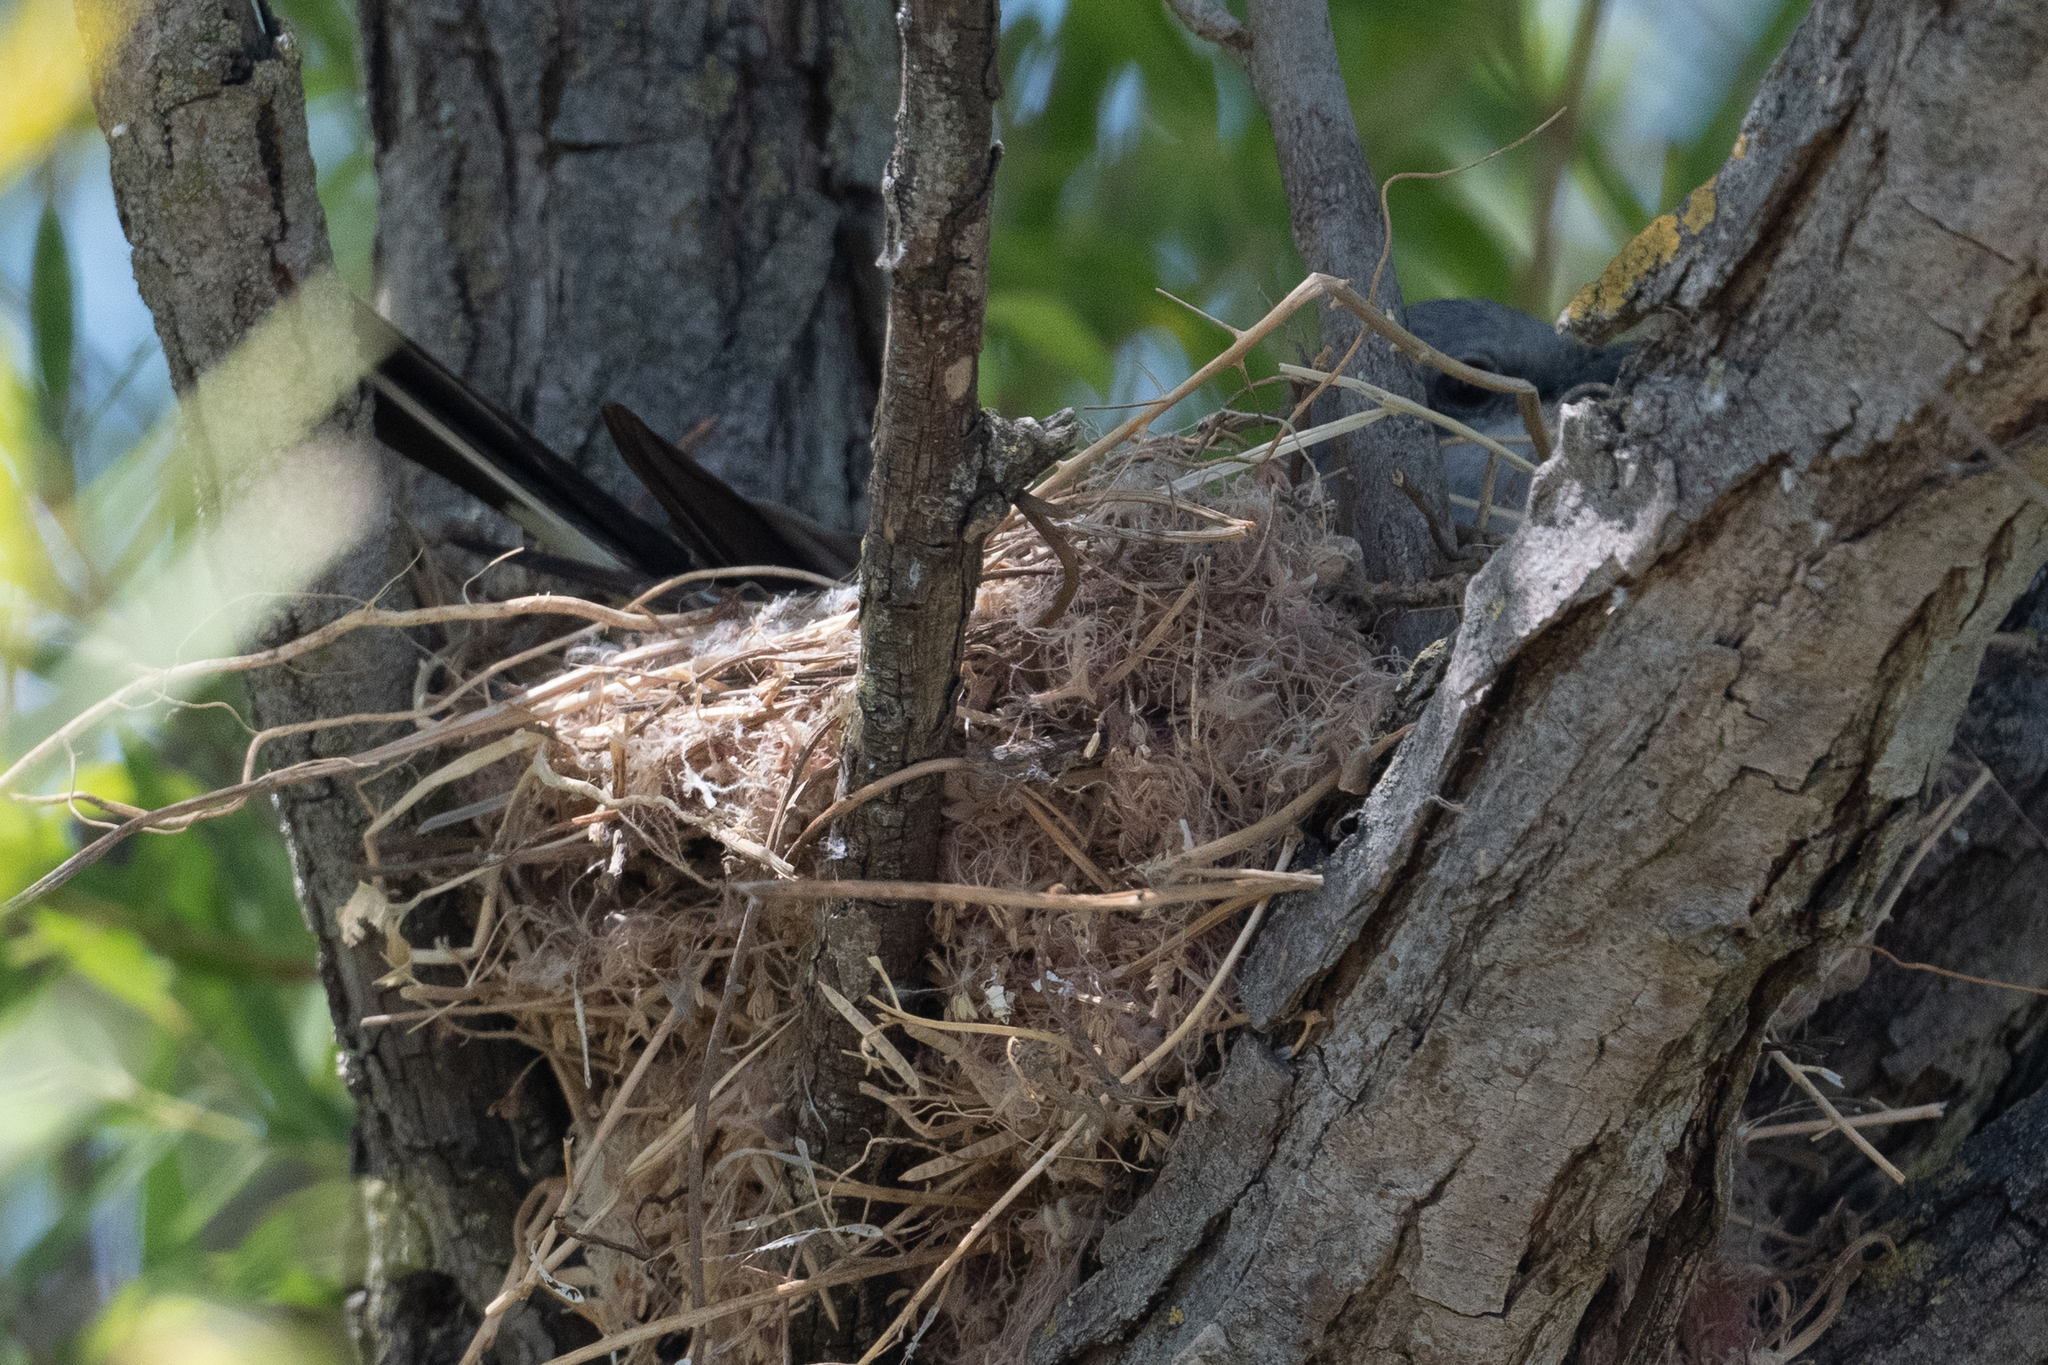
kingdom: Animalia
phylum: Chordata
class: Aves
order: Passeriformes
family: Tyrannidae
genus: Tyrannus
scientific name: Tyrannus verticalis
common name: Western kingbird
